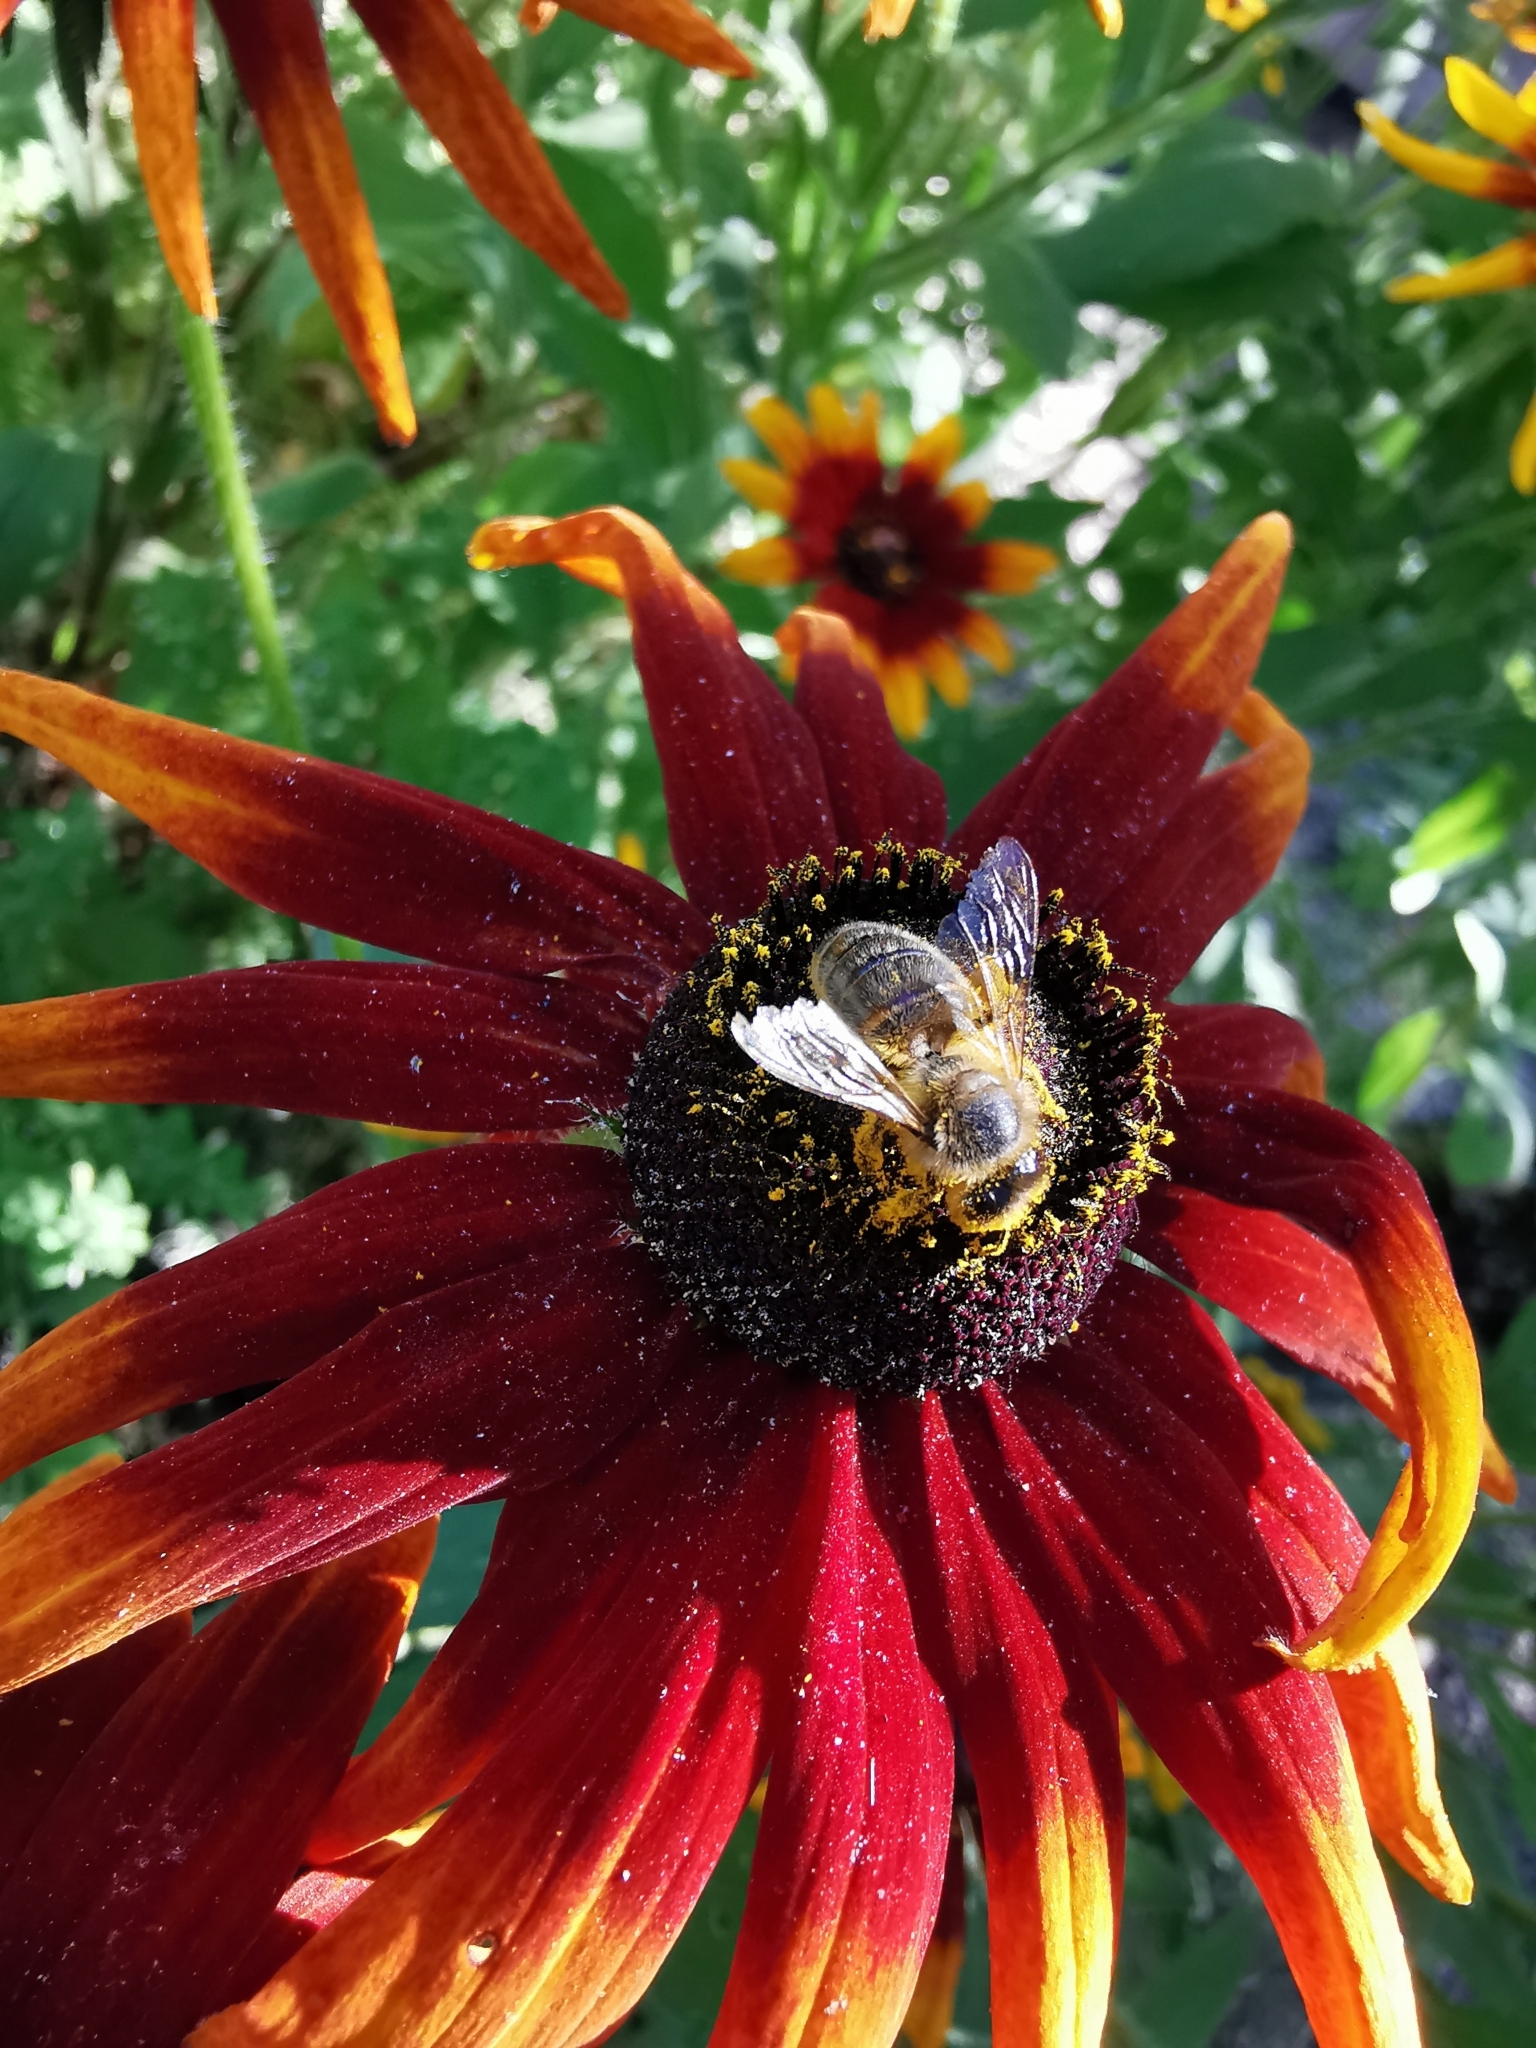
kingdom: Animalia
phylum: Arthropoda
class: Insecta
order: Hymenoptera
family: Apidae
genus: Apis
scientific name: Apis mellifera
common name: Honey bee
